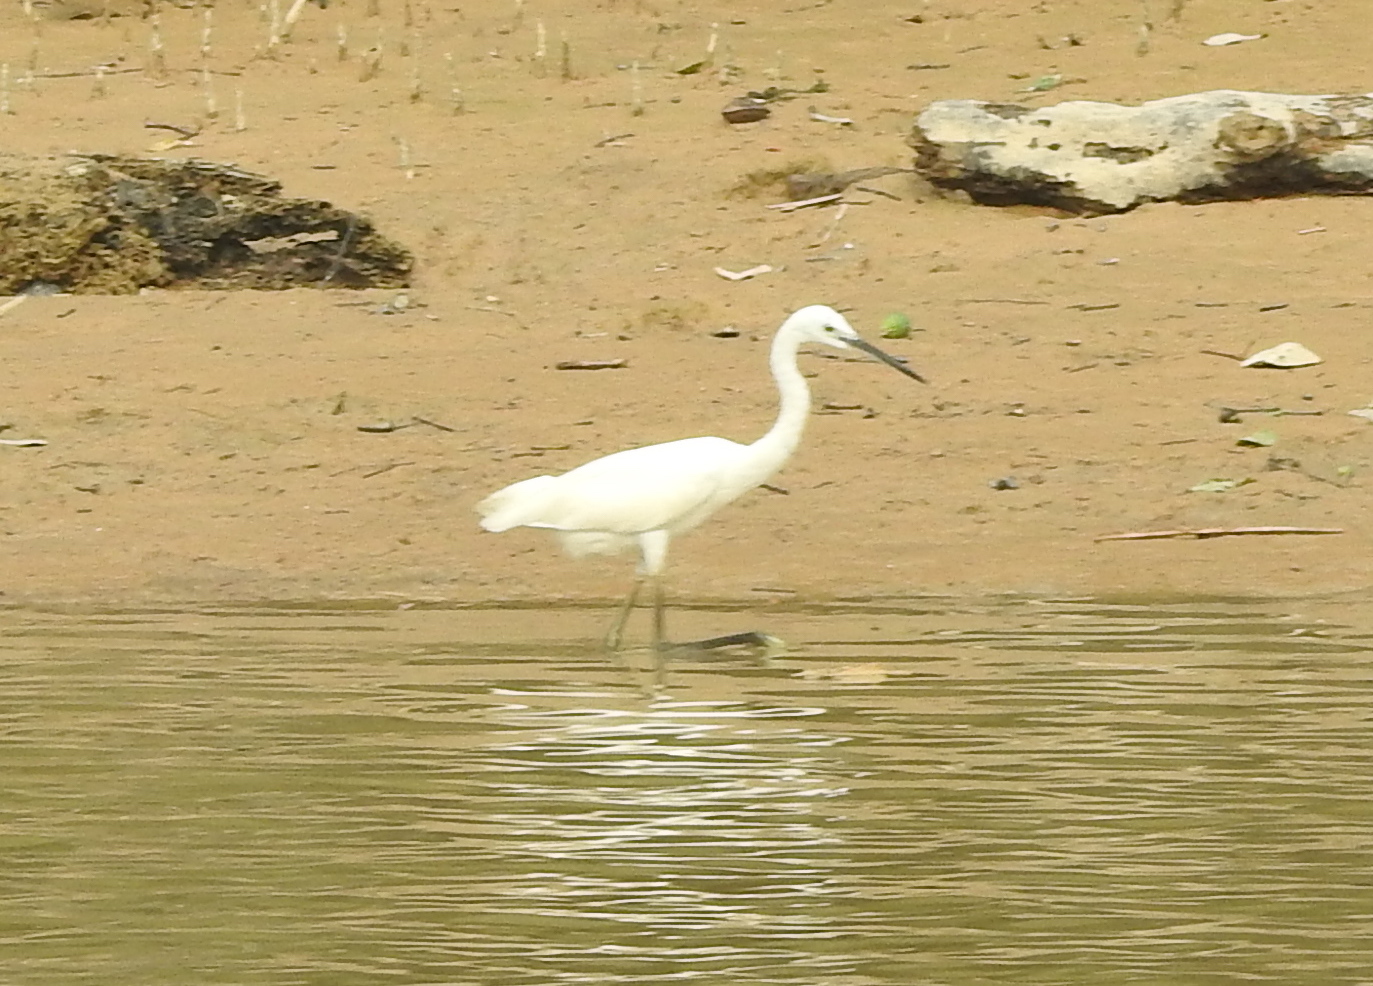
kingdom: Animalia
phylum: Chordata
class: Aves
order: Pelecaniformes
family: Ardeidae
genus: Egretta
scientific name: Egretta garzetta
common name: Little egret
